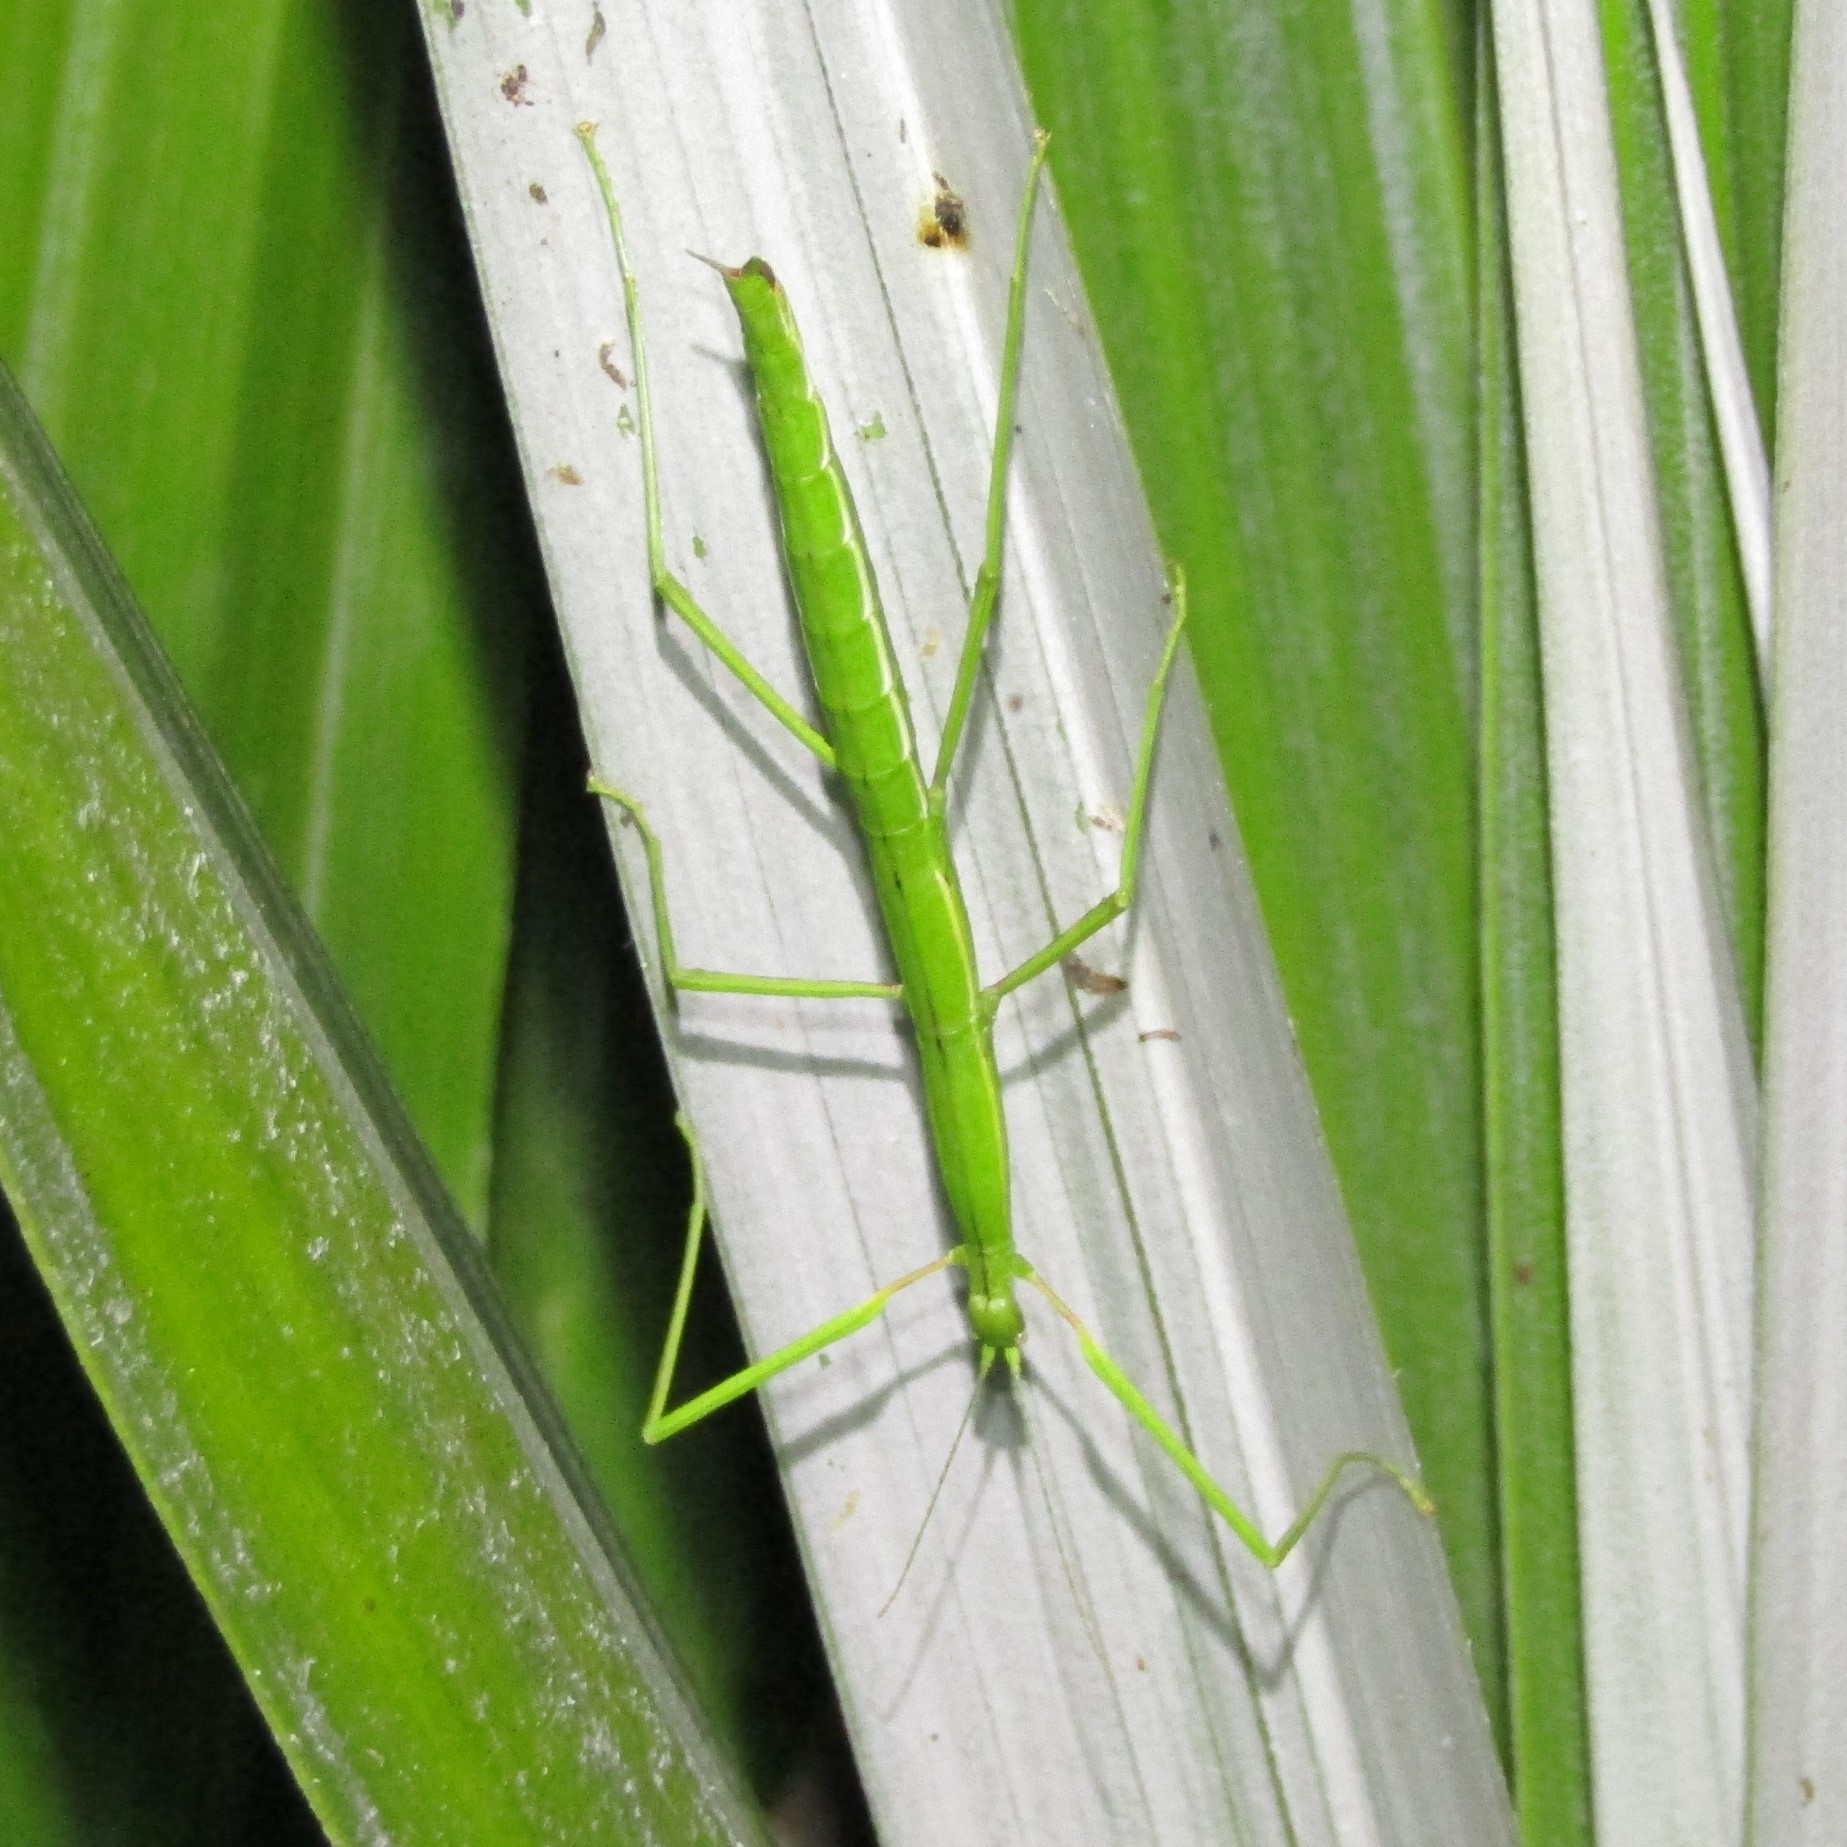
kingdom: Animalia
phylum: Arthropoda
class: Insecta
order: Phasmida
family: Phasmatidae
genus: Clitarchus
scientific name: Clitarchus hookeri
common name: Smooth stick insect
